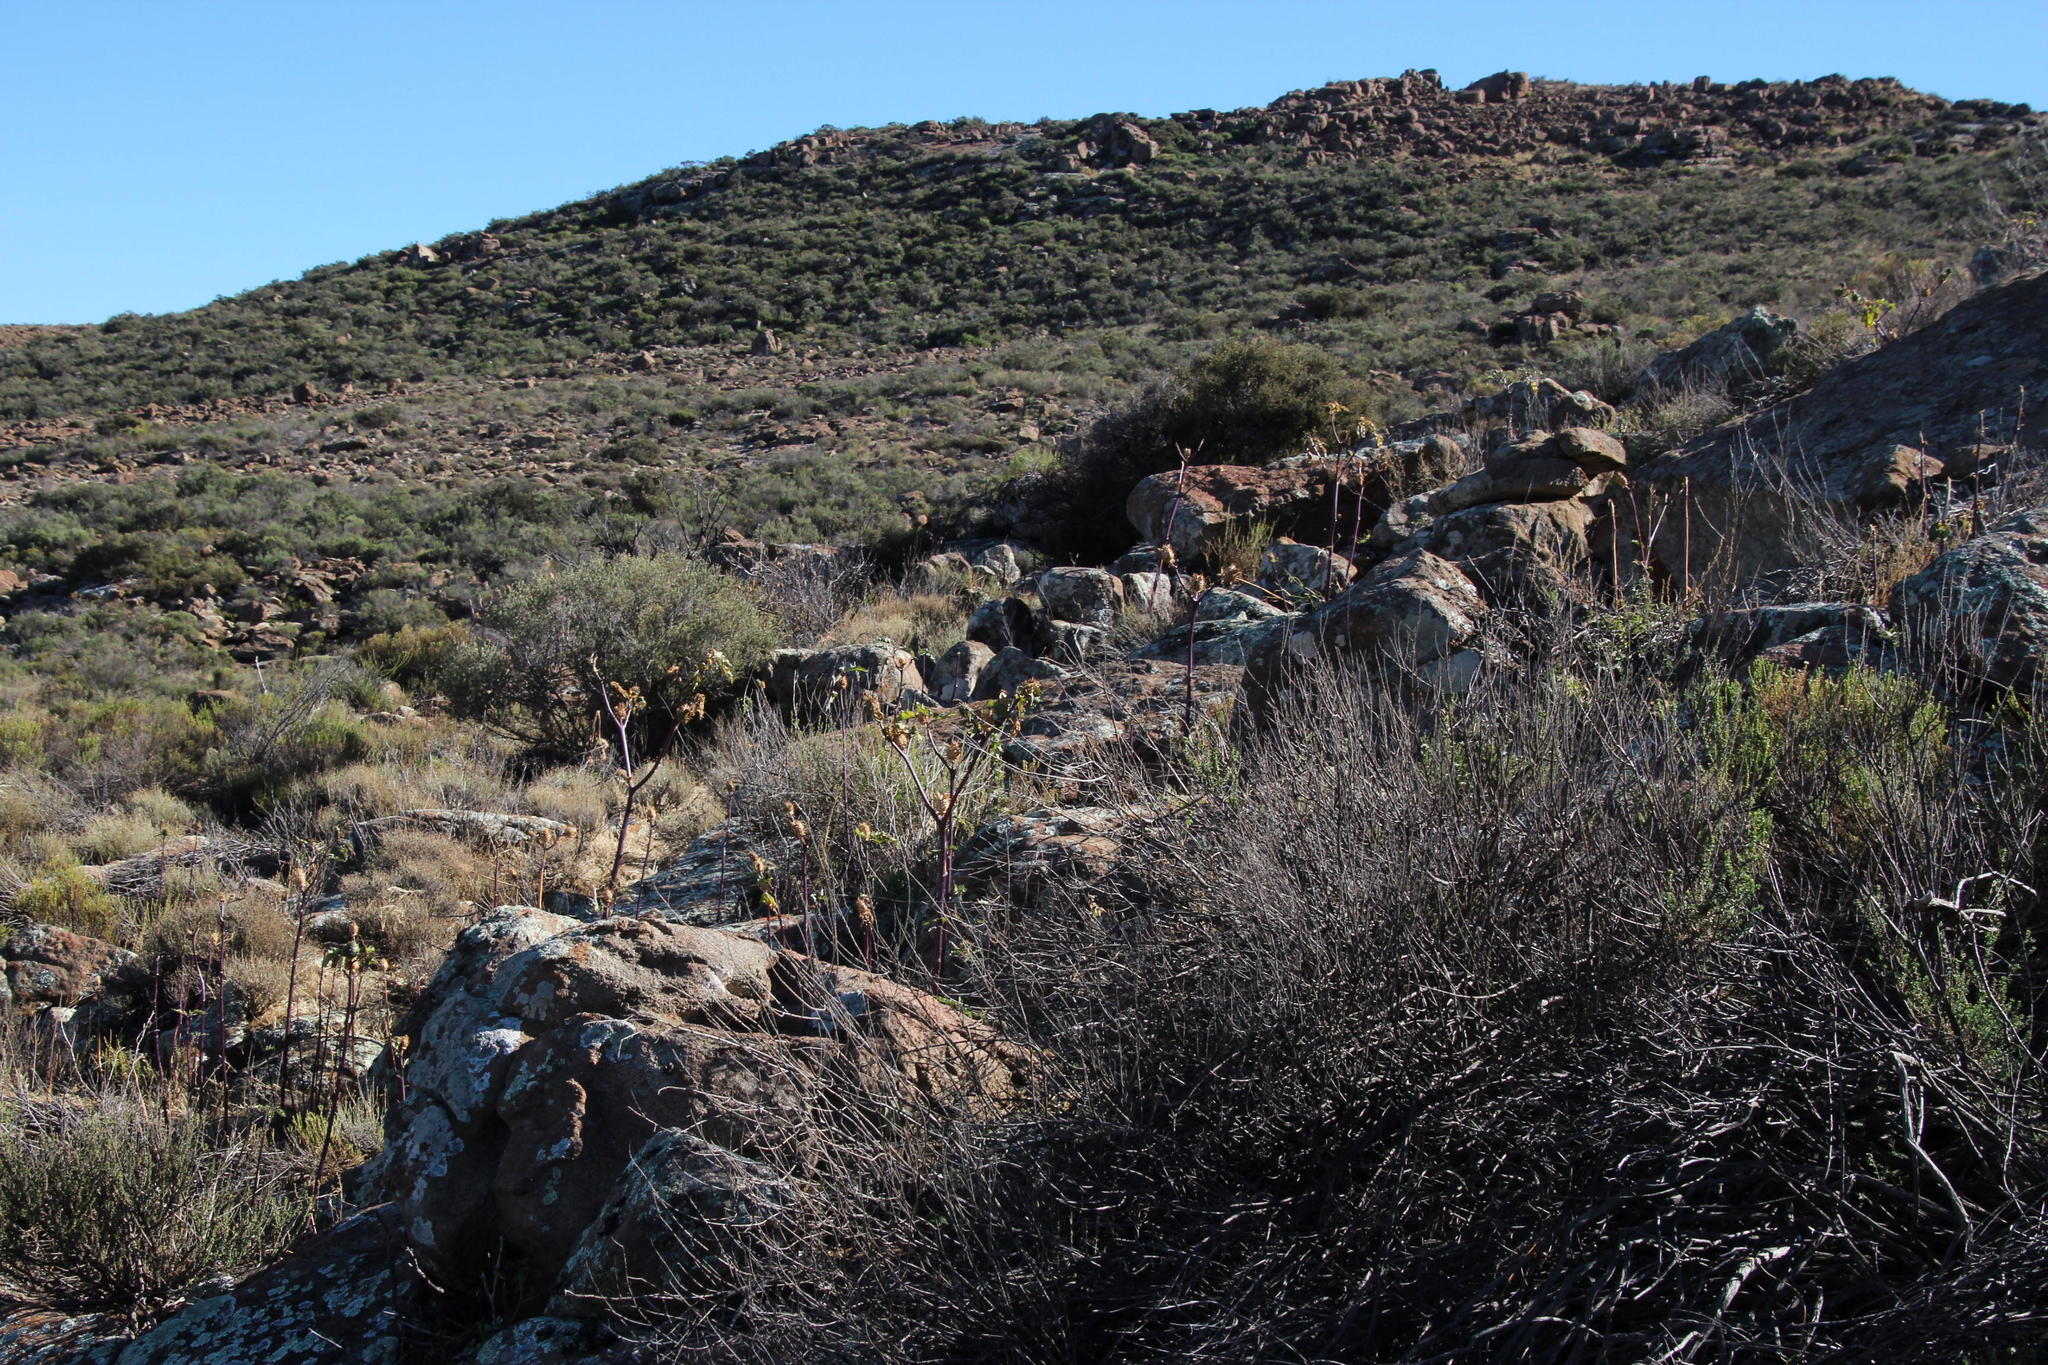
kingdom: Plantae
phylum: Tracheophyta
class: Magnoliopsida
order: Solanales
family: Solanaceae
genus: Datura
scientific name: Datura stramonium
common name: Thorn-apple
